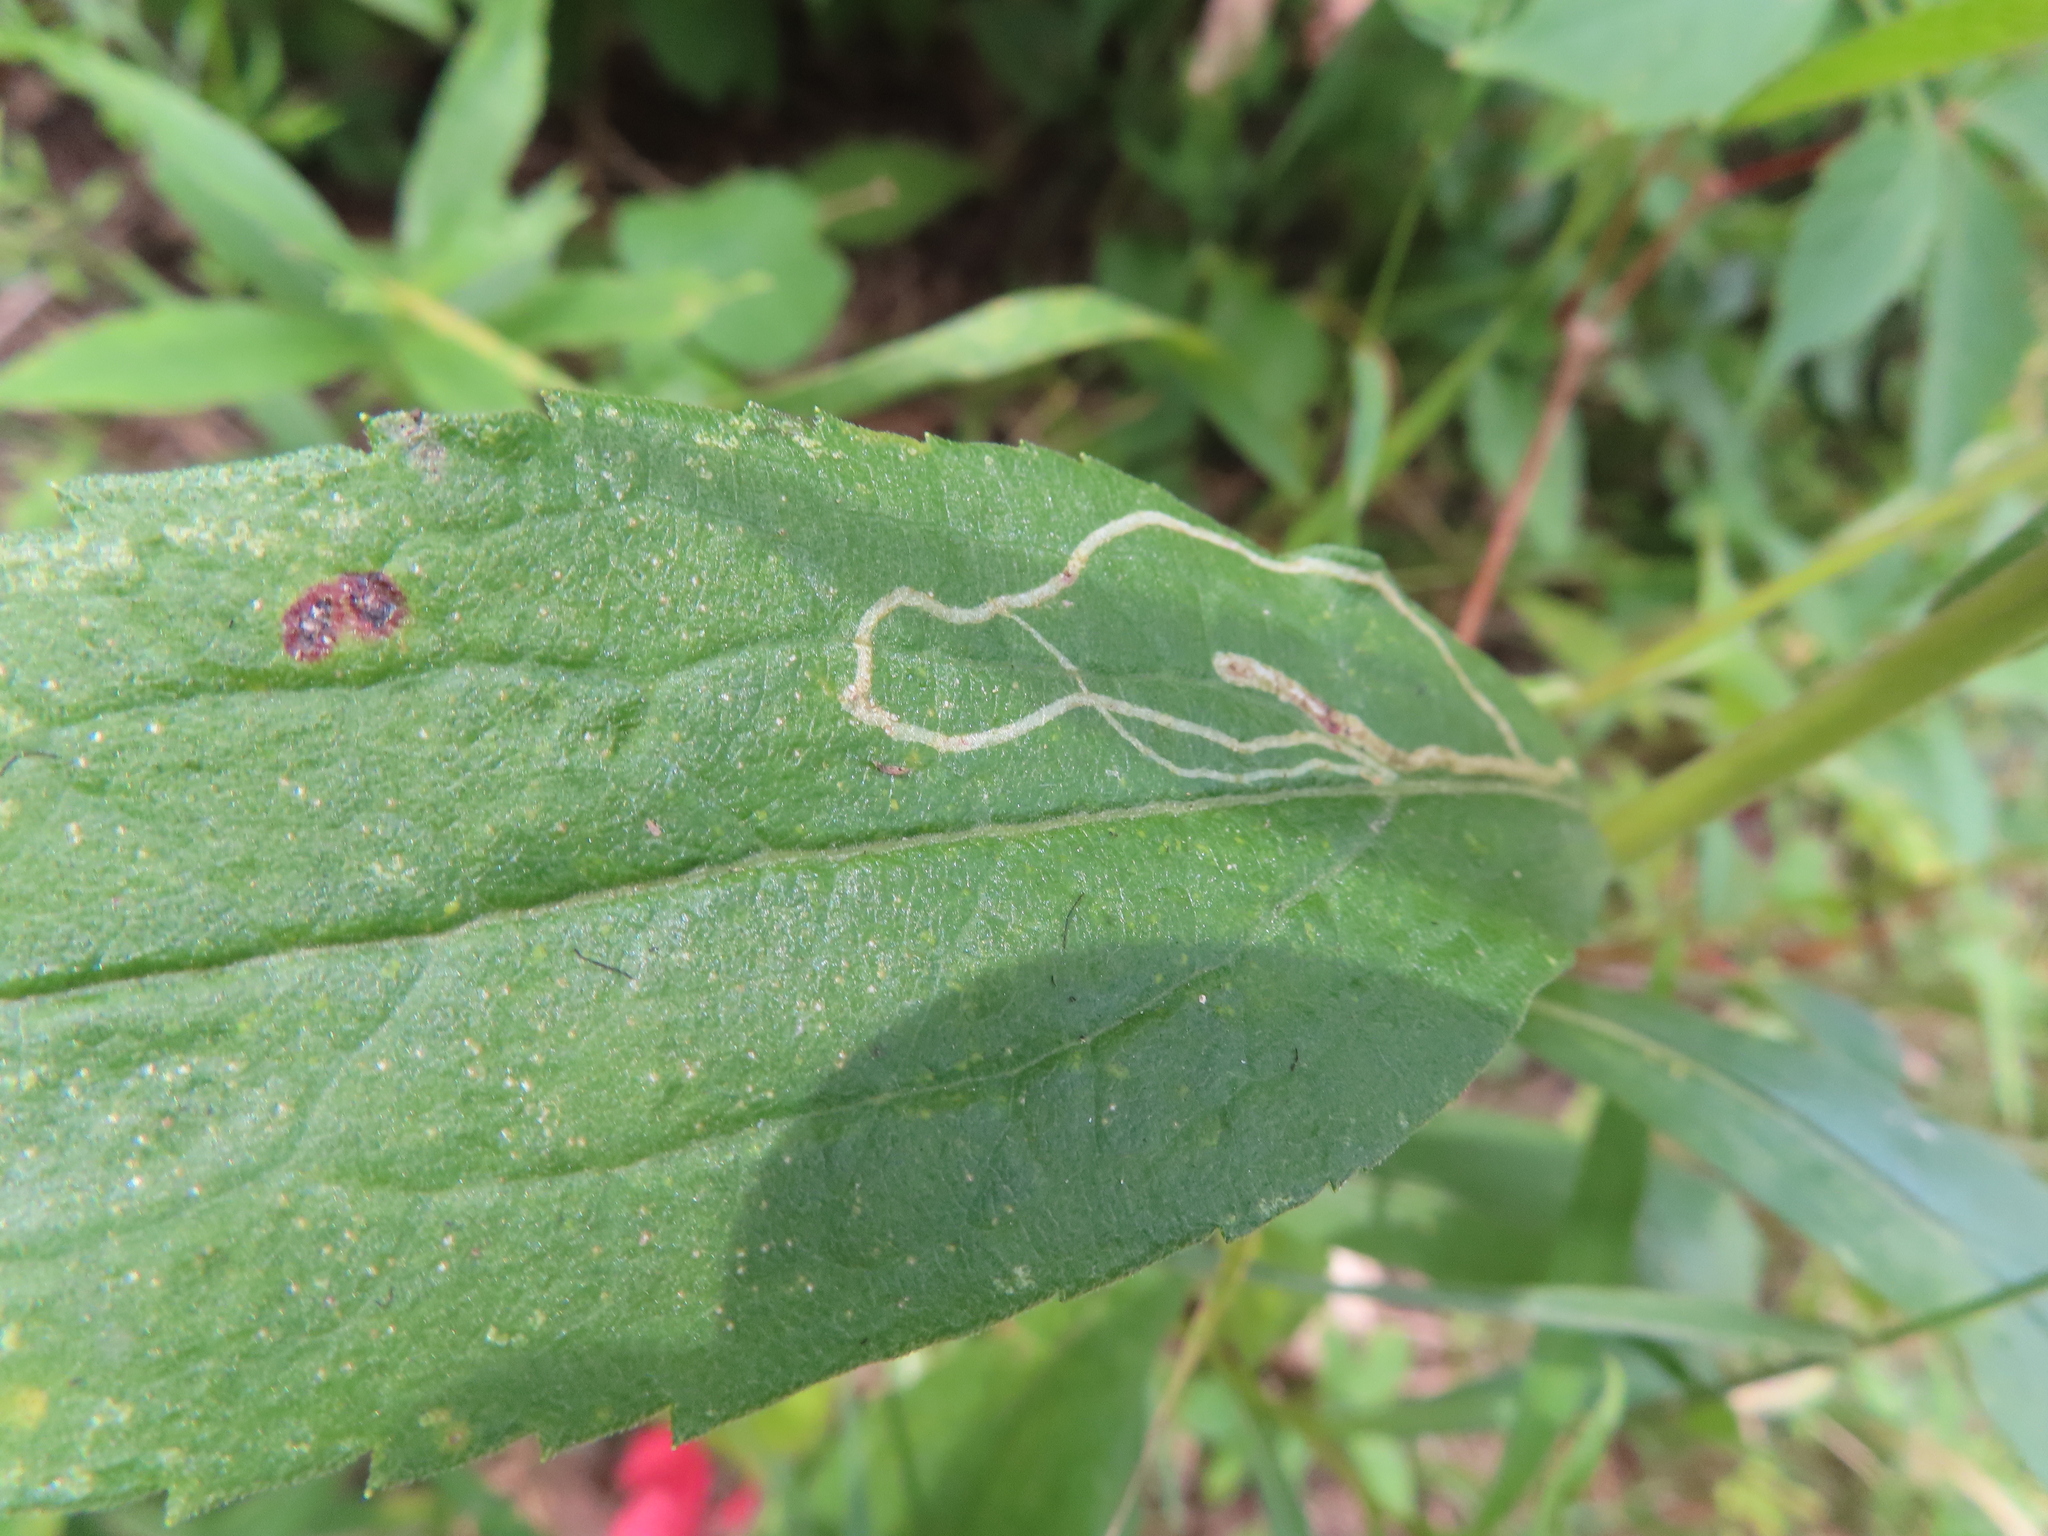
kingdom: Animalia
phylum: Arthropoda
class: Insecta
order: Diptera
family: Agromyzidae
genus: Ophiomyia
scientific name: Ophiomyia maura
